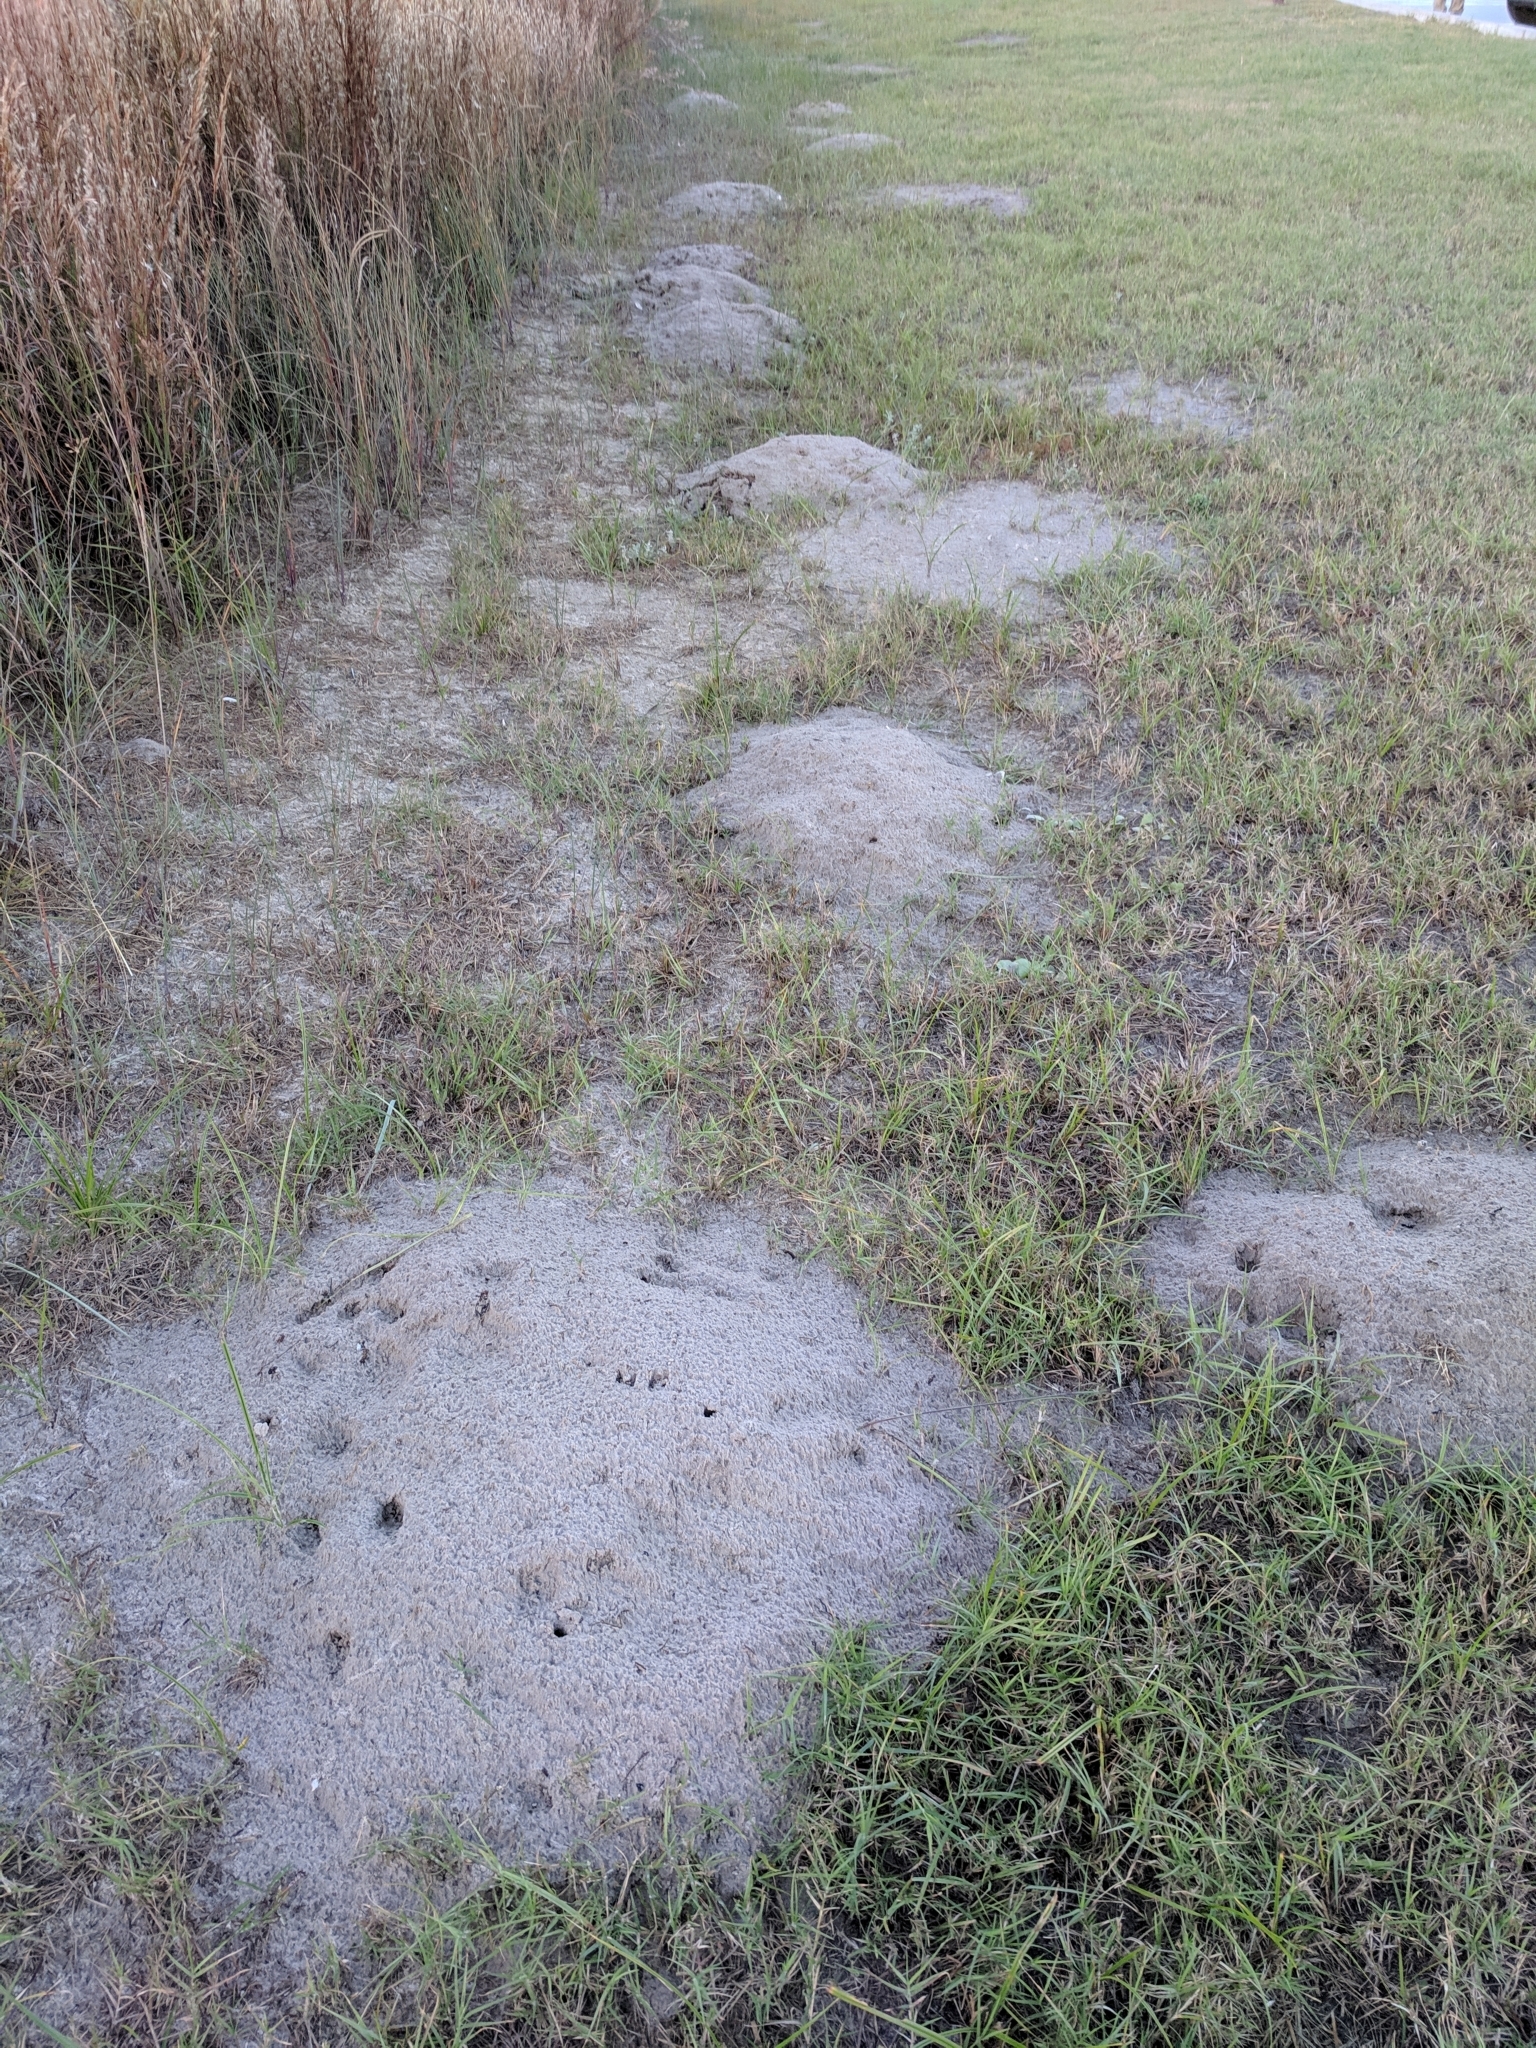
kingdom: Animalia
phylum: Chordata
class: Mammalia
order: Rodentia
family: Geomyidae
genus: Geomys
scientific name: Geomys personatus
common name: Texas pocket gopher
